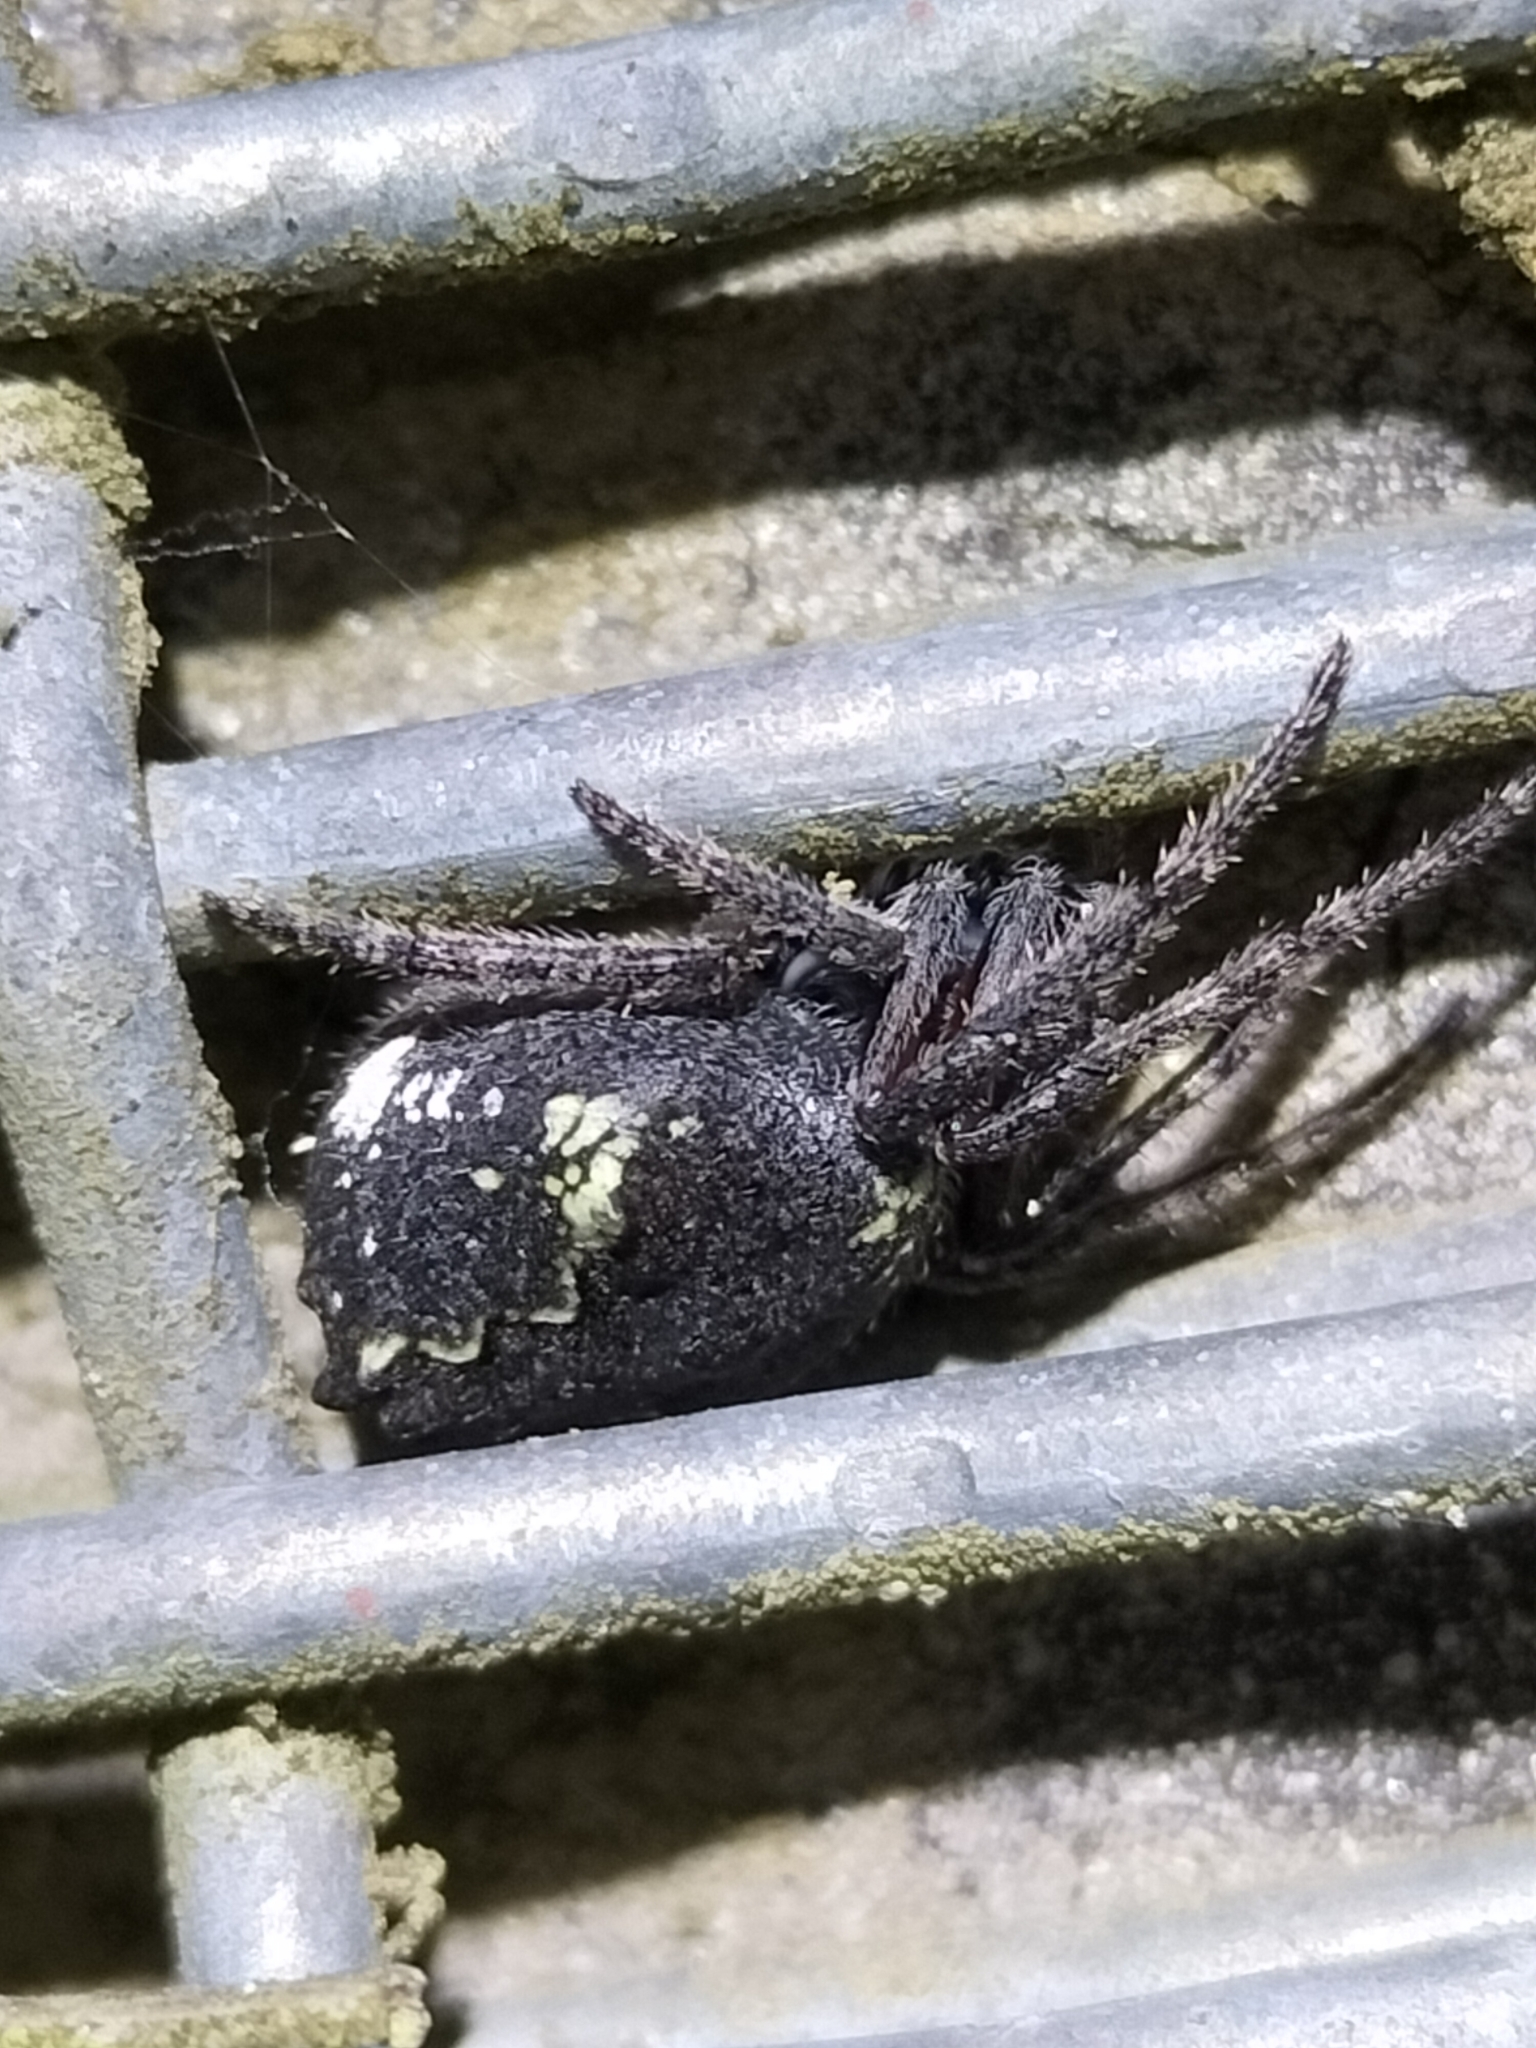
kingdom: Animalia
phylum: Arthropoda
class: Arachnida
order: Araneae
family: Araneidae
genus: Eriophora
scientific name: Eriophora pustulosa
